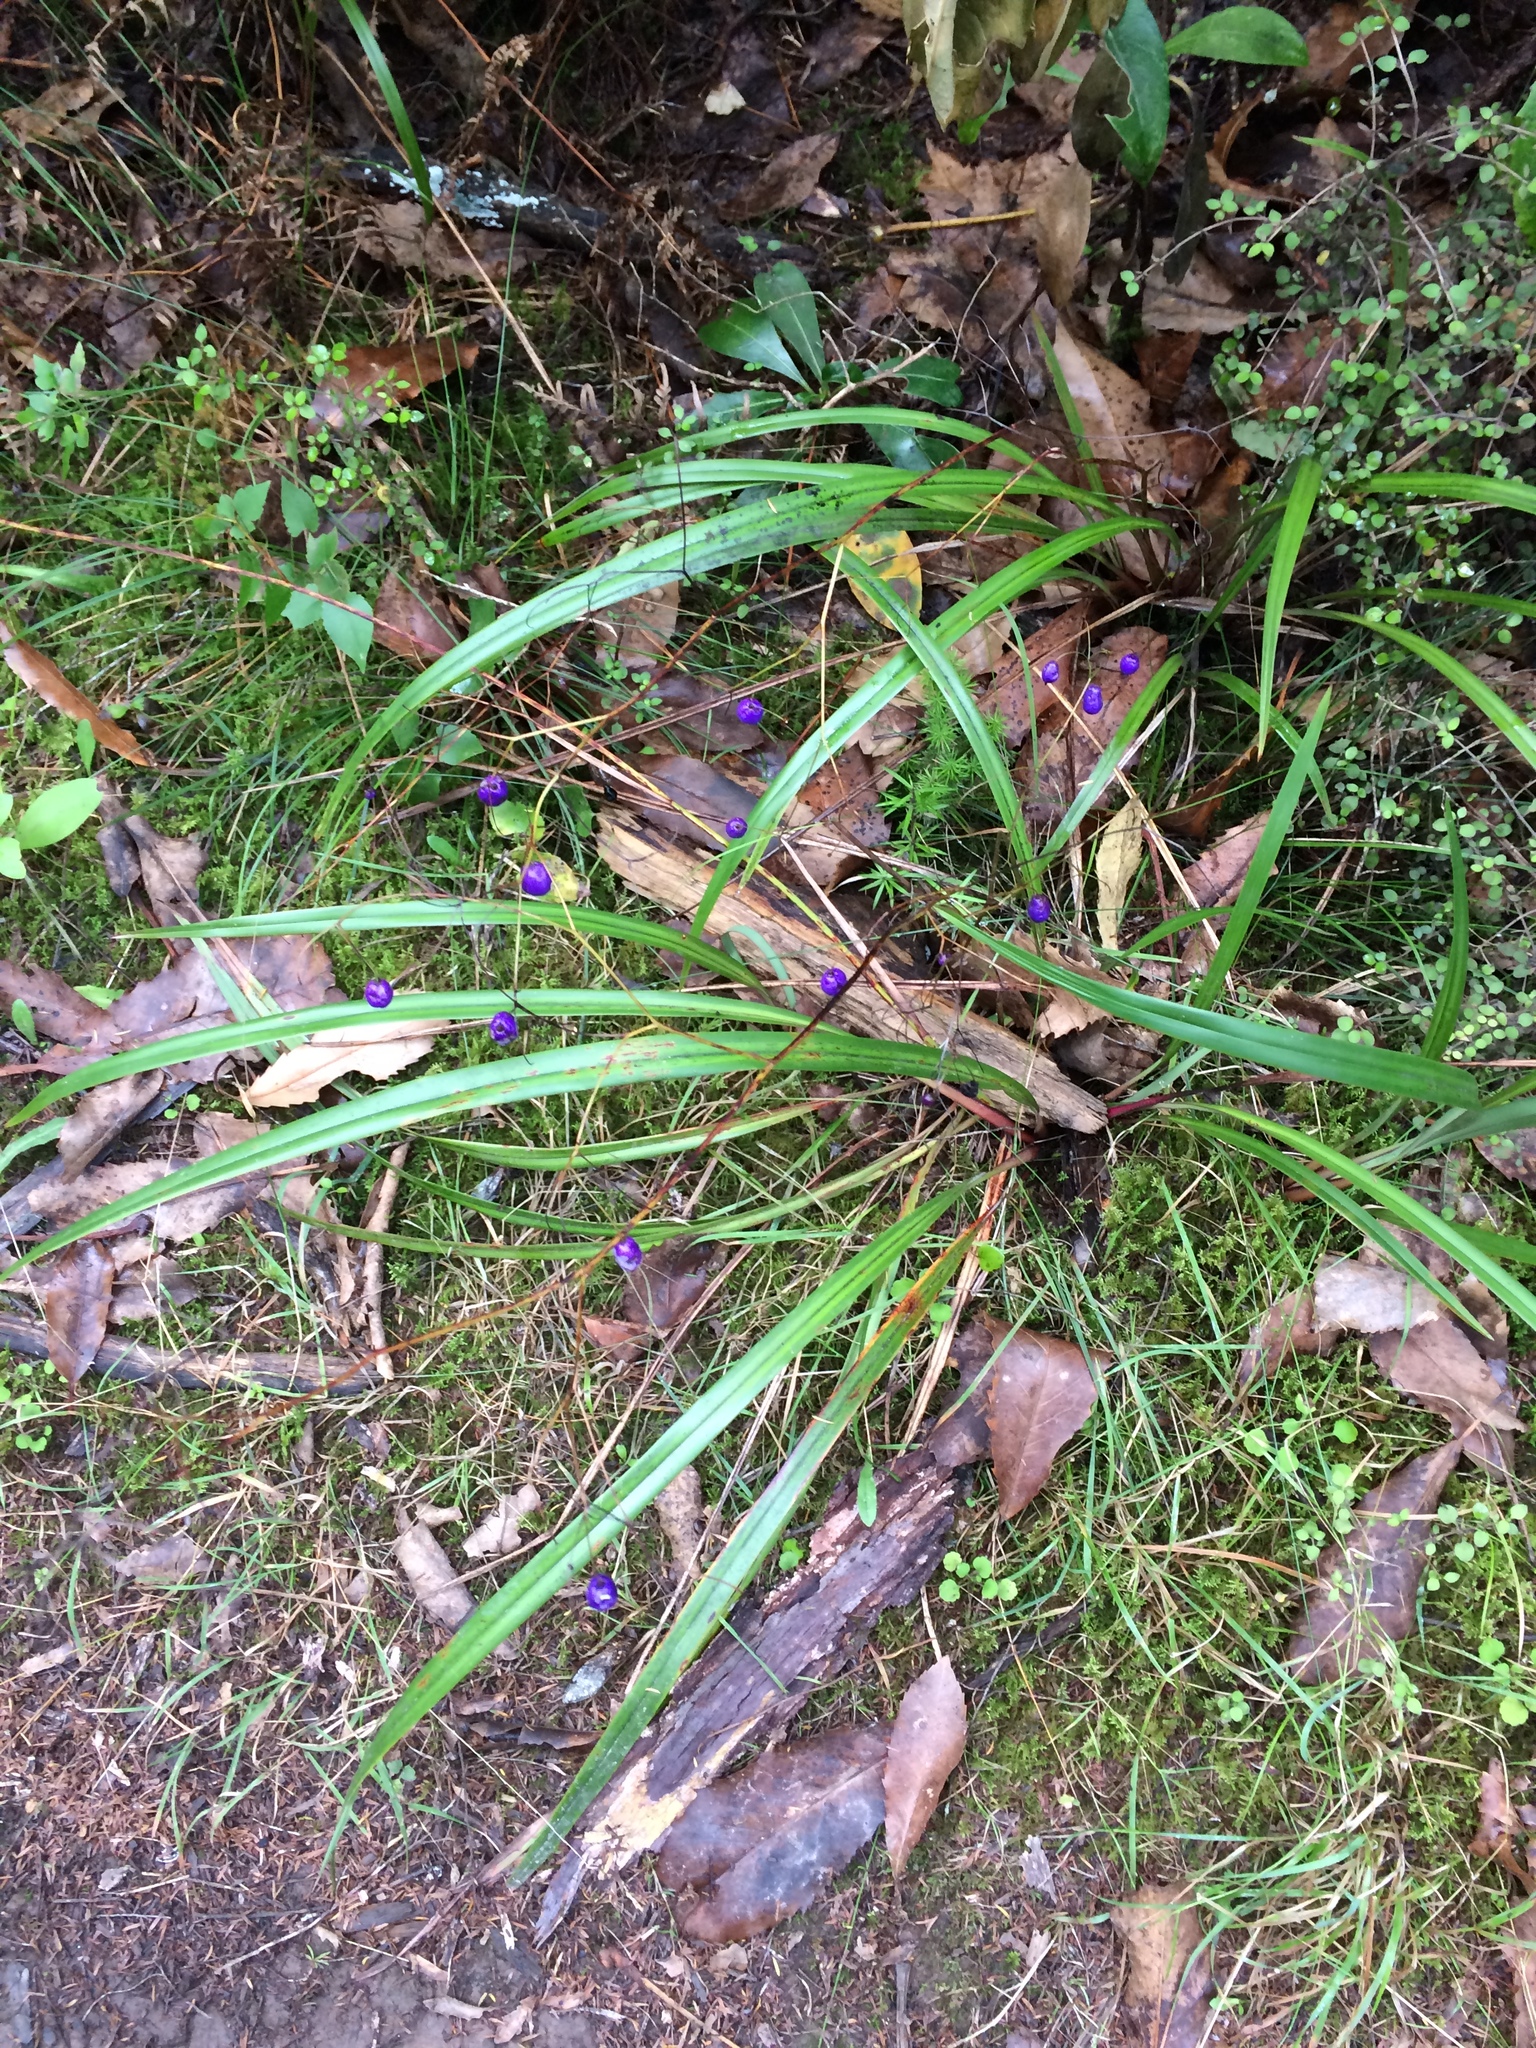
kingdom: Plantae
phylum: Tracheophyta
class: Liliopsida
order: Asparagales
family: Asphodelaceae
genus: Dianella
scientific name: Dianella nigra
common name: New zealand-blueberry
